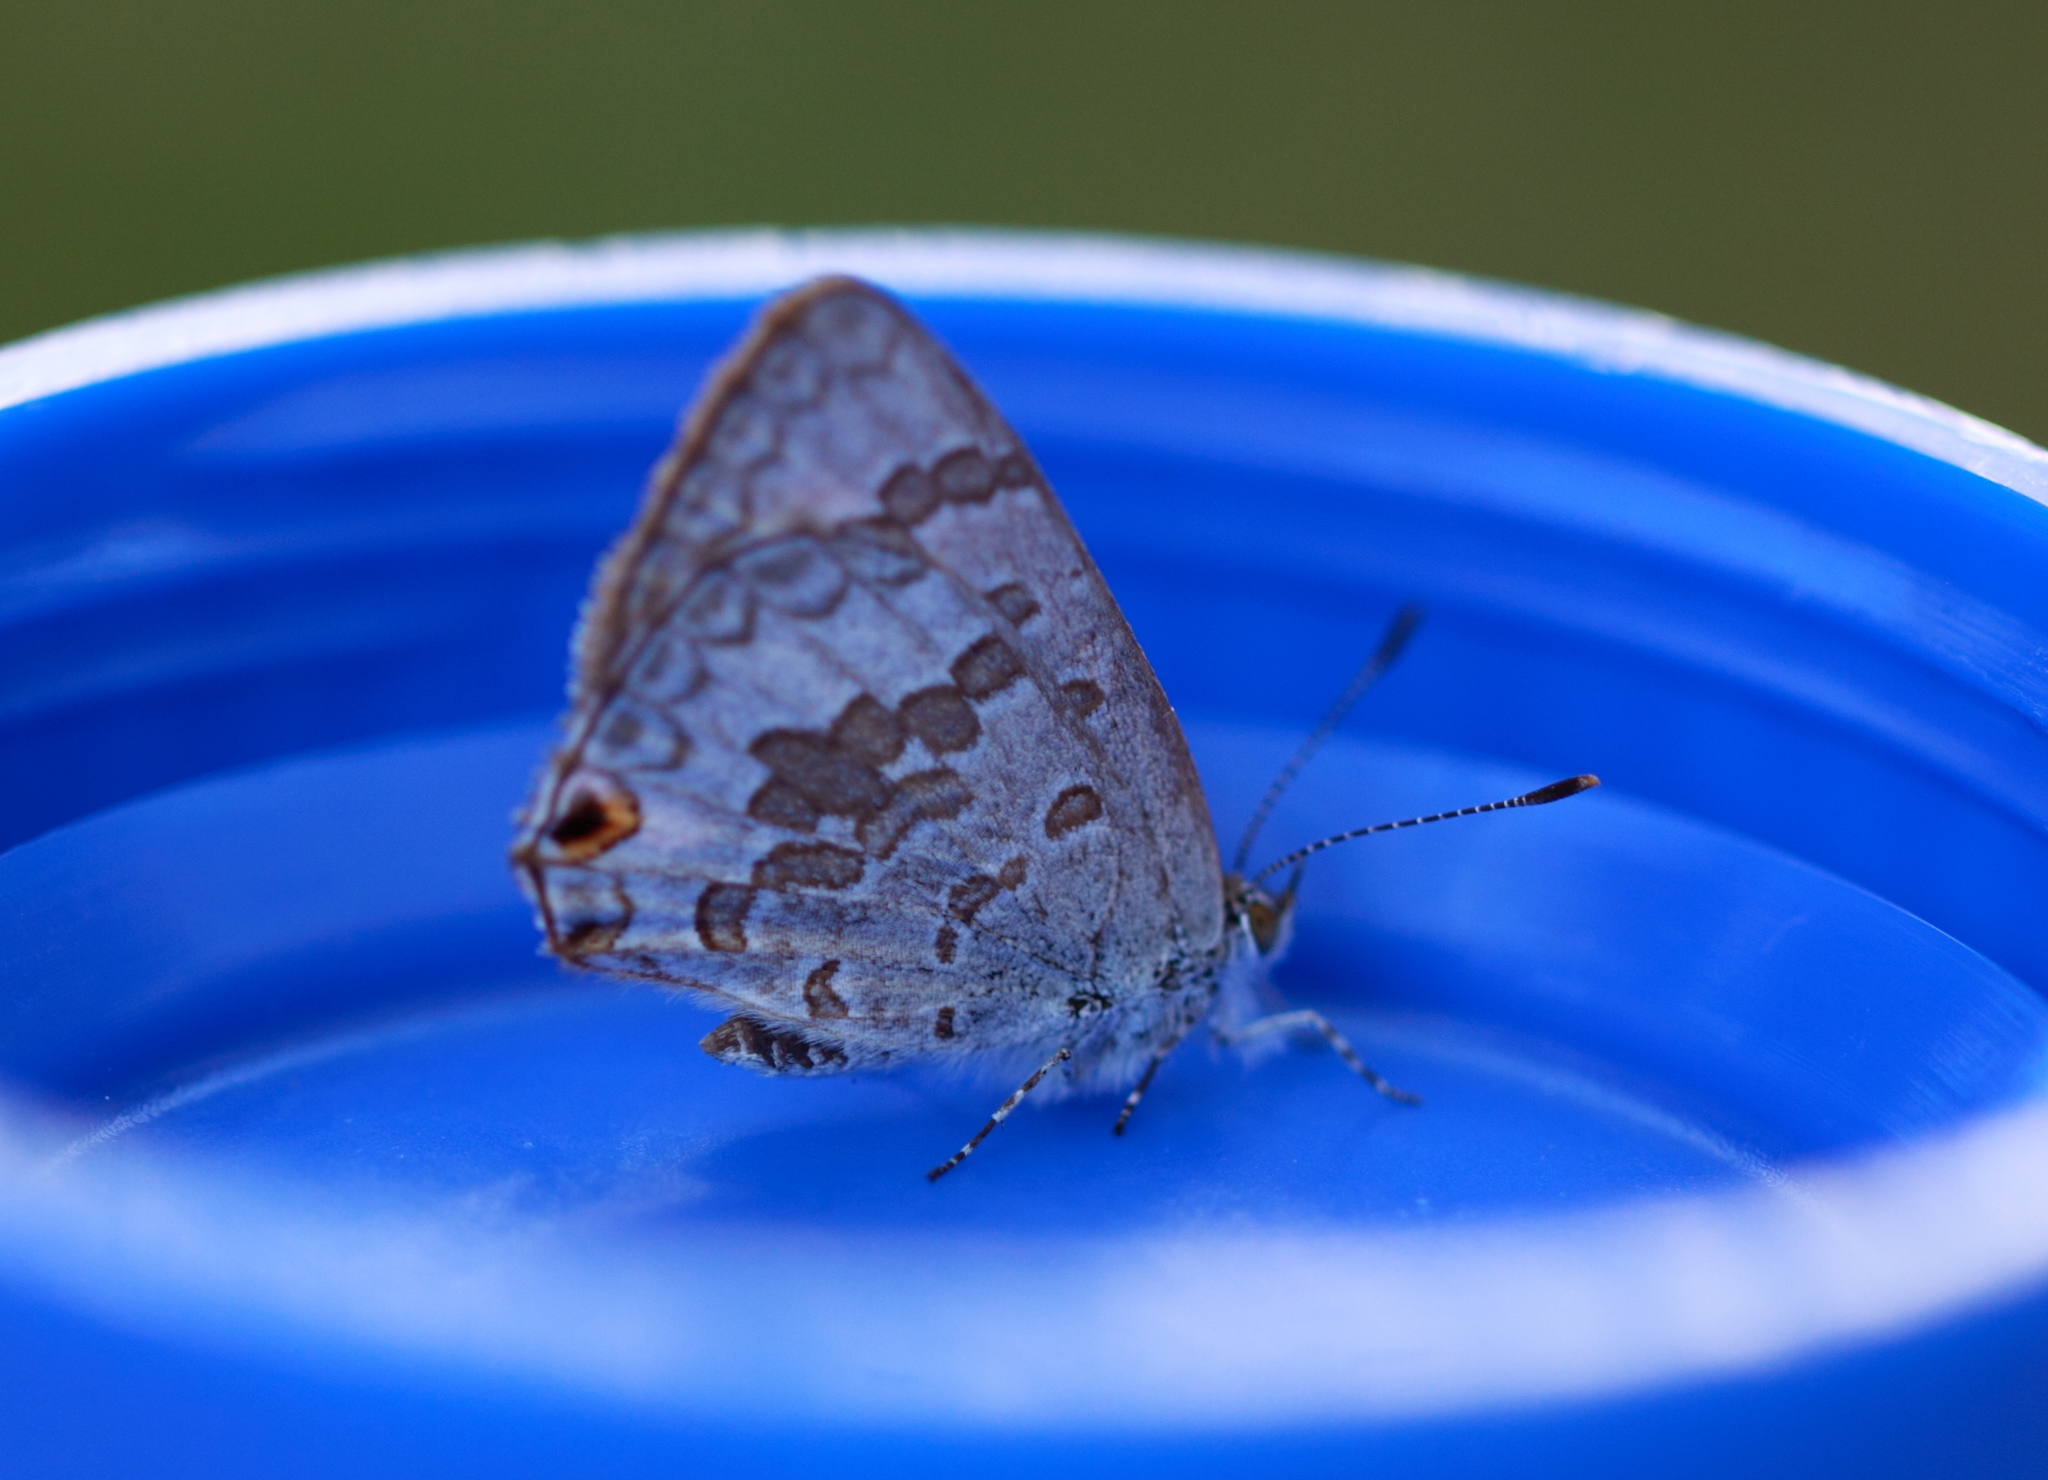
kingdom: Animalia
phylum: Arthropoda
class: Insecta
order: Lepidoptera
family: Lycaenidae
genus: Catopyrops
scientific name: Catopyrops florinda
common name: Speckled line-blue
